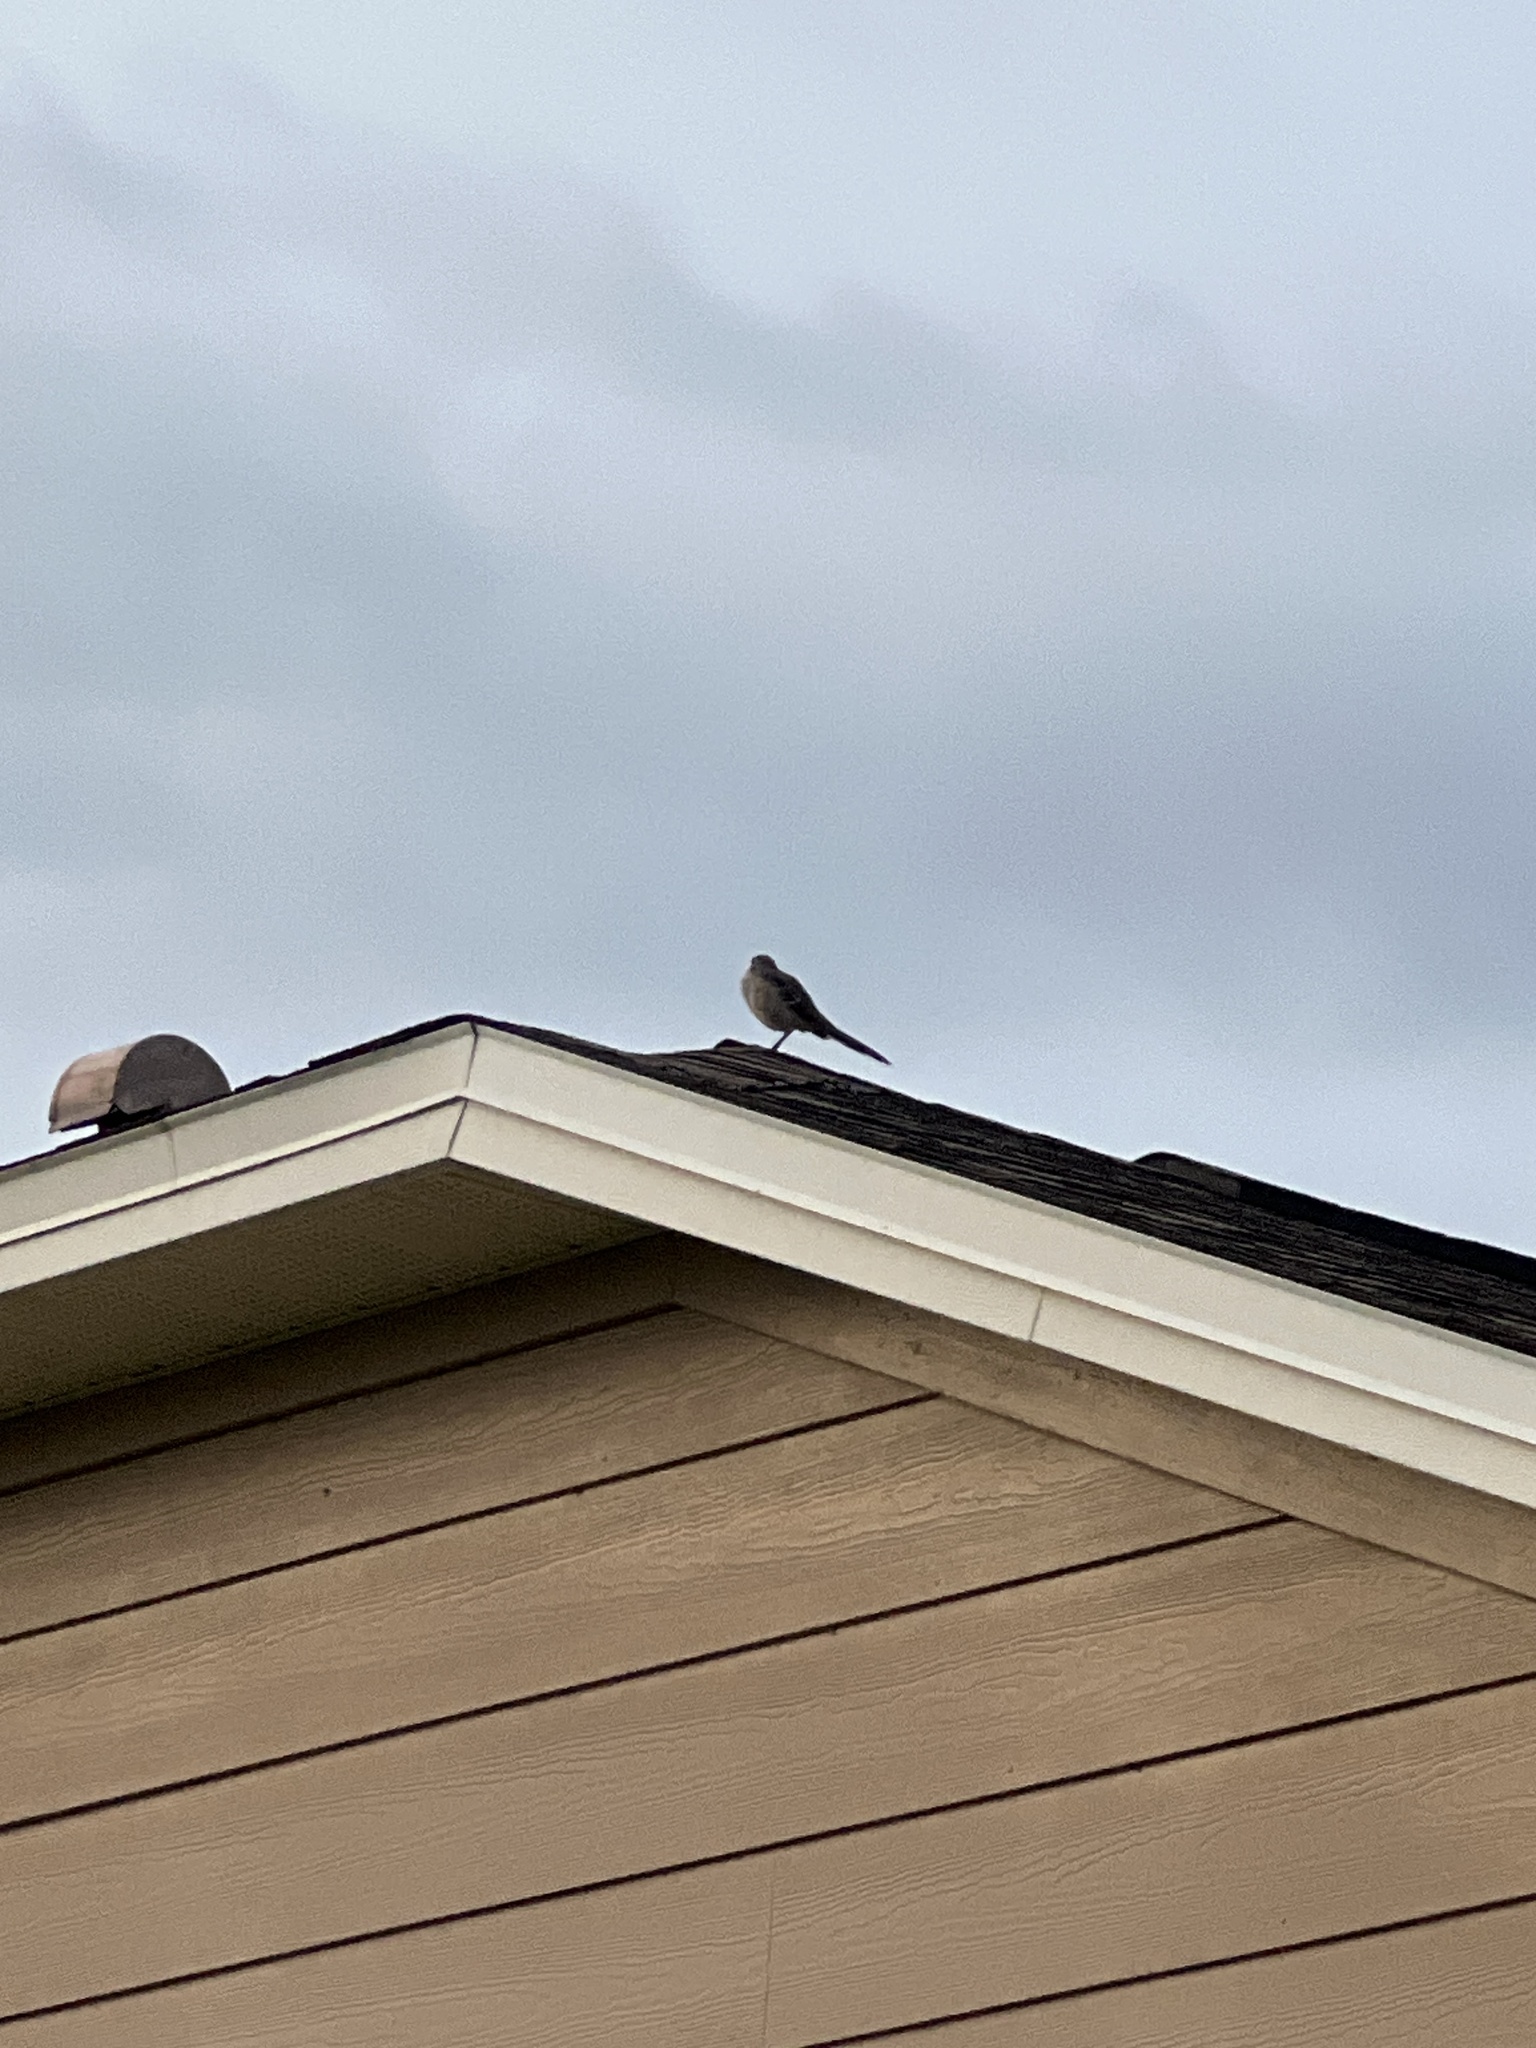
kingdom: Animalia
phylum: Chordata
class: Aves
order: Passeriformes
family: Mimidae
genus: Mimus
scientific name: Mimus polyglottos
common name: Northern mockingbird
